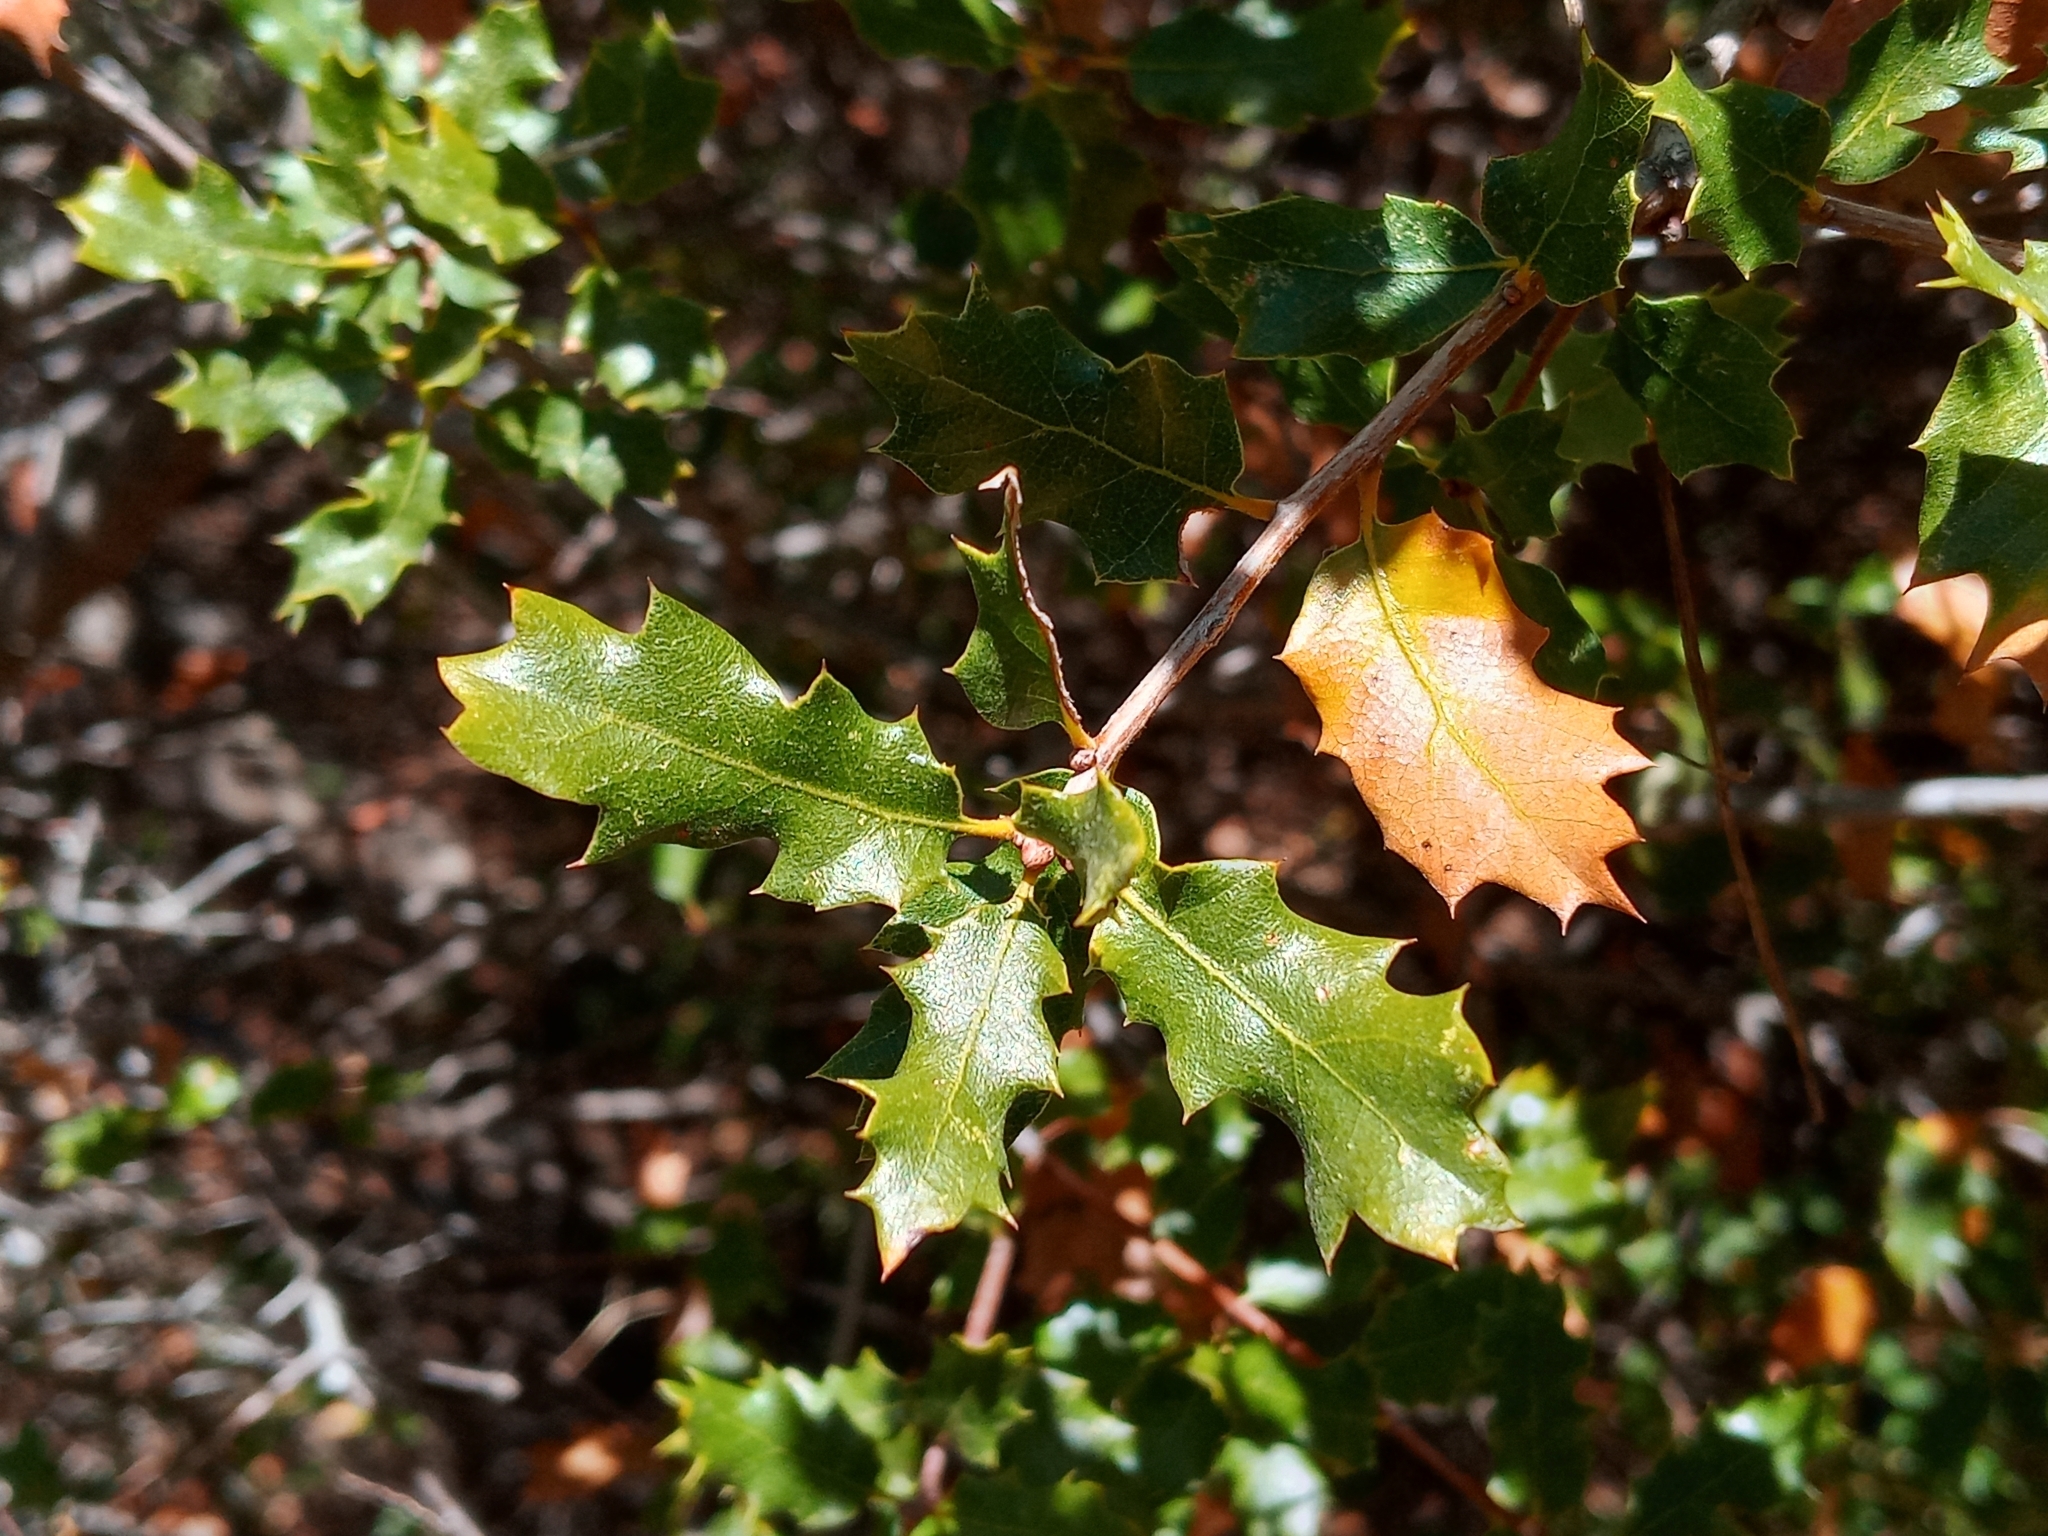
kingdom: Plantae
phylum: Tracheophyta
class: Magnoliopsida
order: Fagales
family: Fagaceae
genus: Quercus
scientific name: Quercus berberidifolia
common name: California scrub oak
